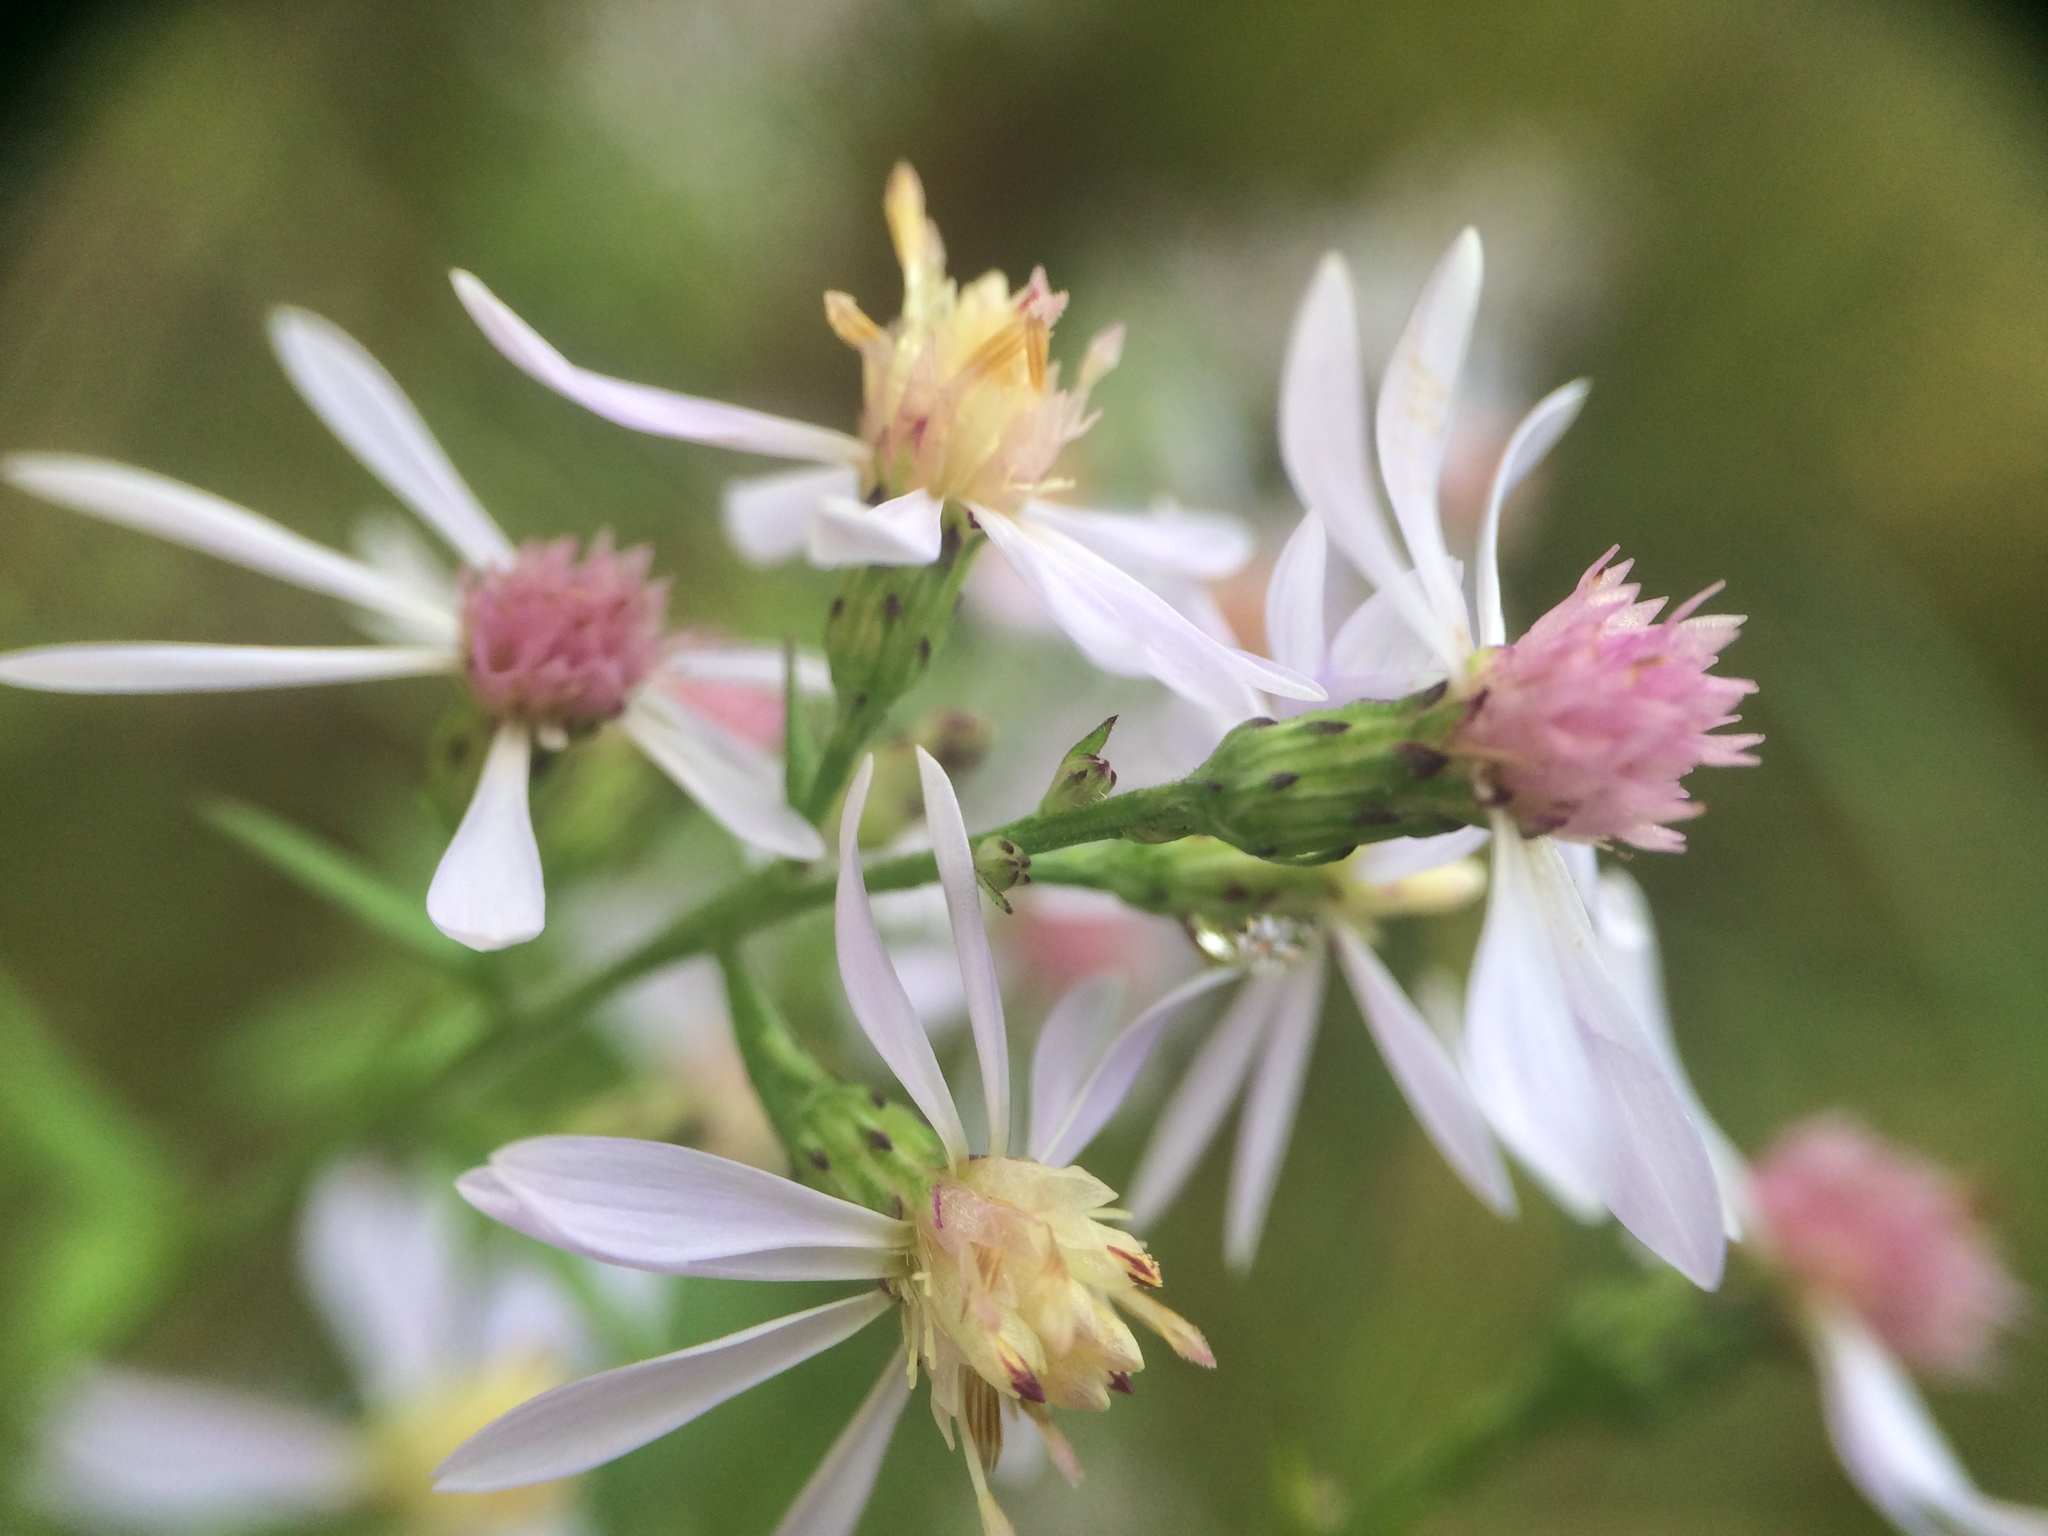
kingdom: Plantae
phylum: Tracheophyta
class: Magnoliopsida
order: Asterales
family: Asteraceae
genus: Symphyotrichum
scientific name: Symphyotrichum cordifolium
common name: Beeweed
